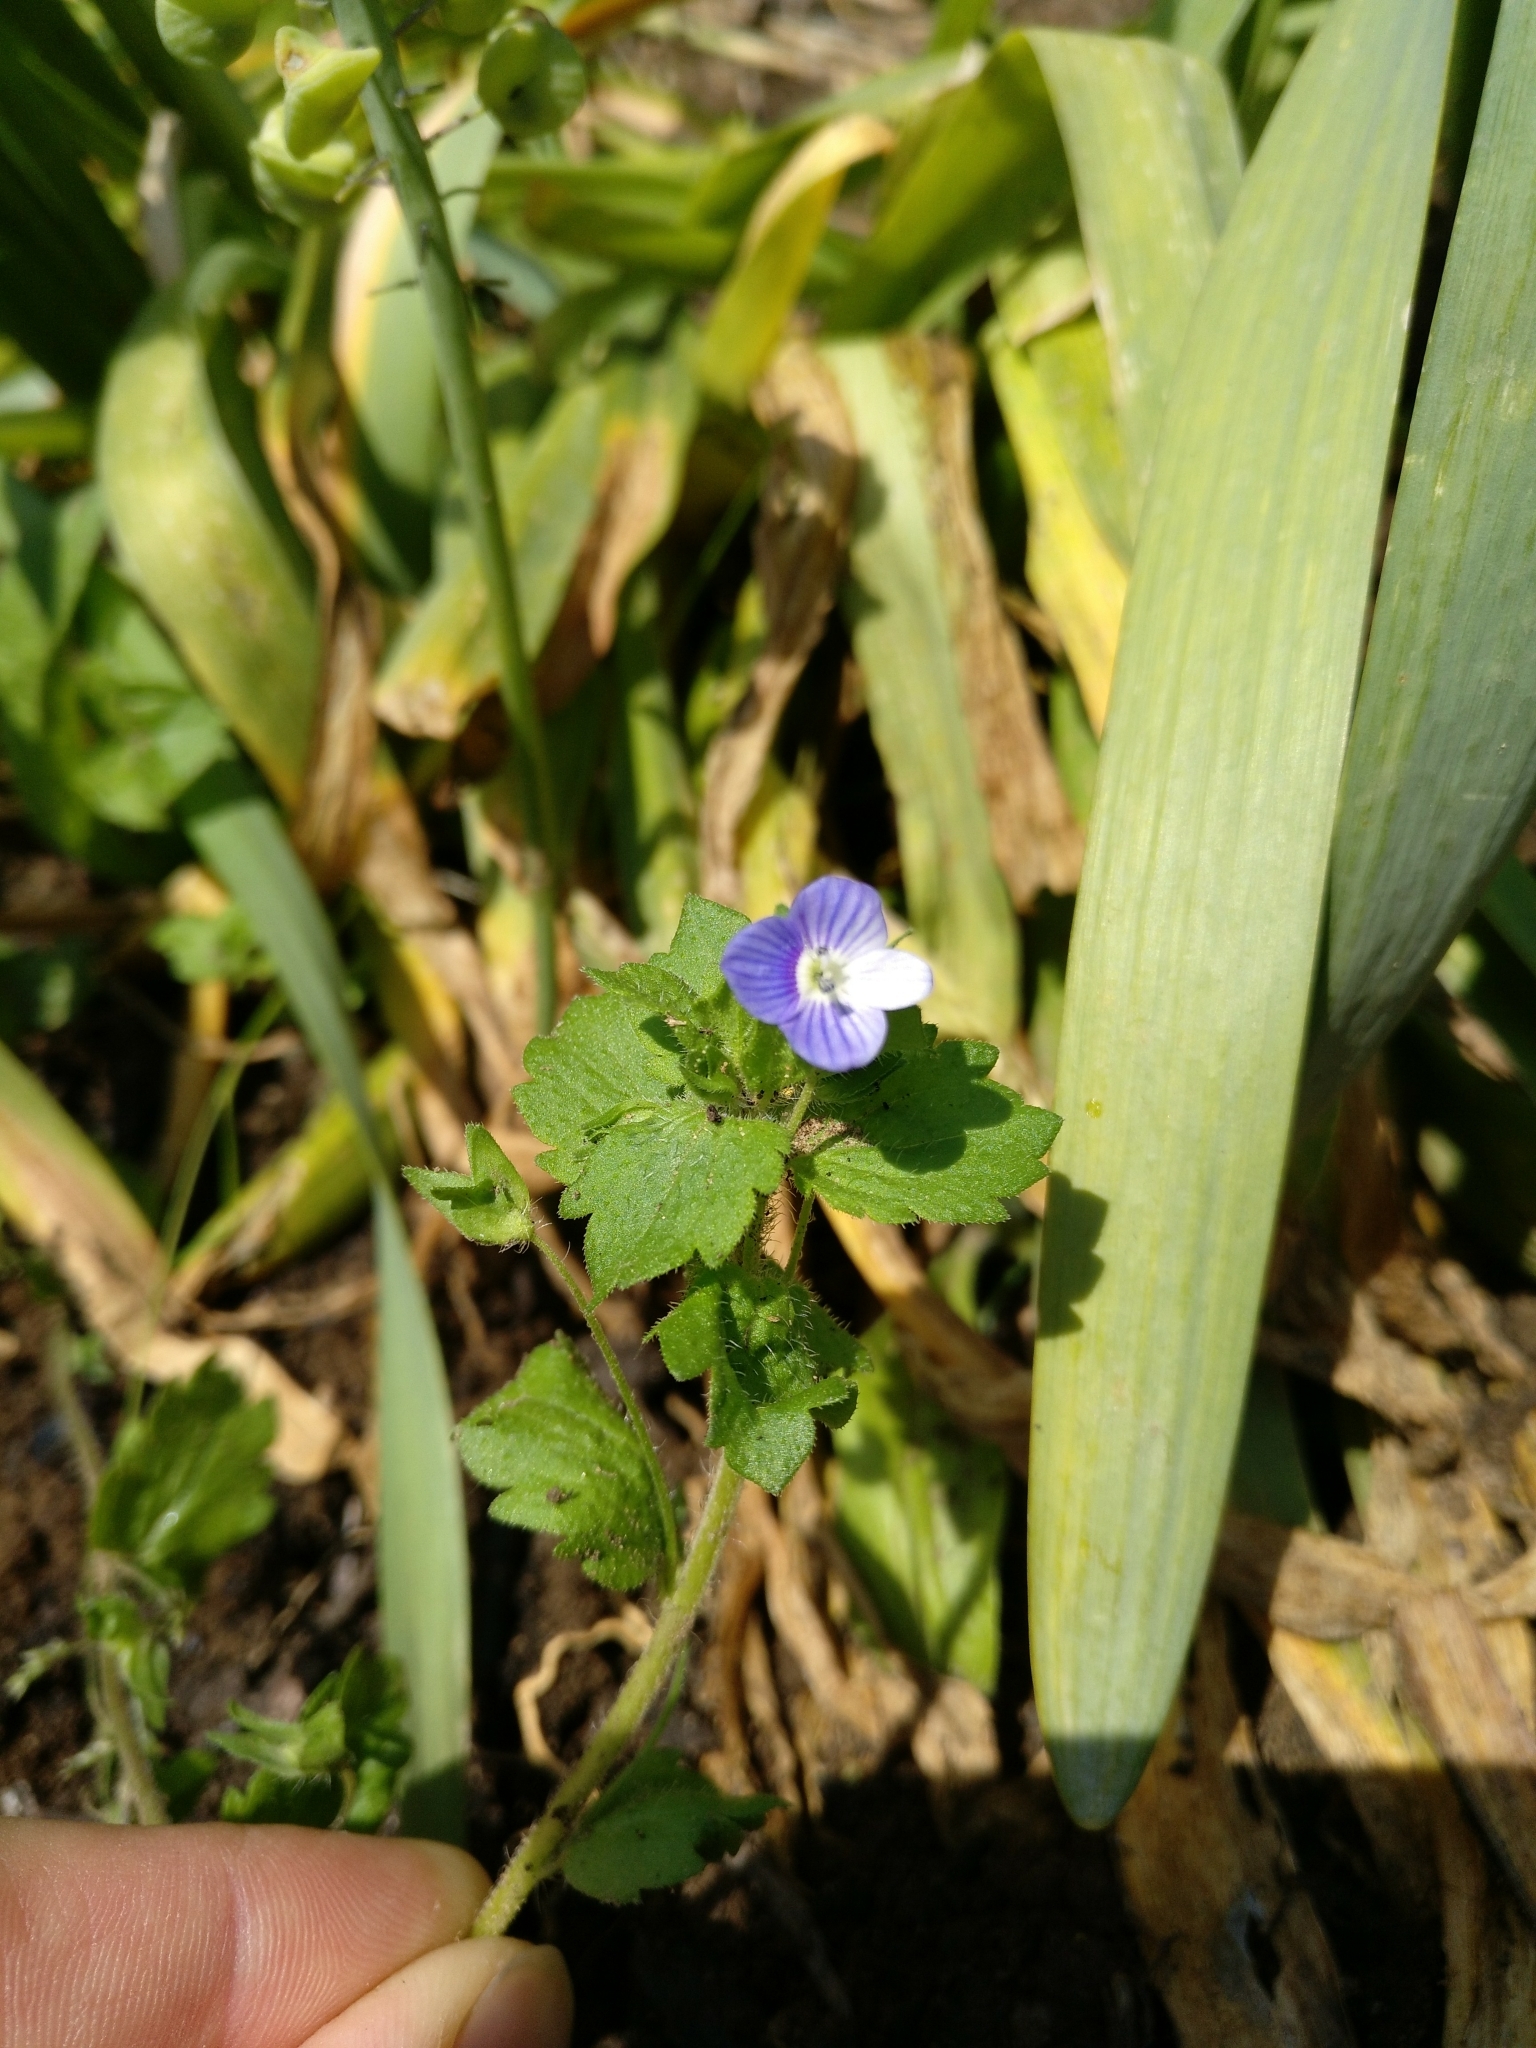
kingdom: Plantae
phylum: Tracheophyta
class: Magnoliopsida
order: Lamiales
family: Plantaginaceae
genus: Veronica
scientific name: Veronica persica
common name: Common field-speedwell
